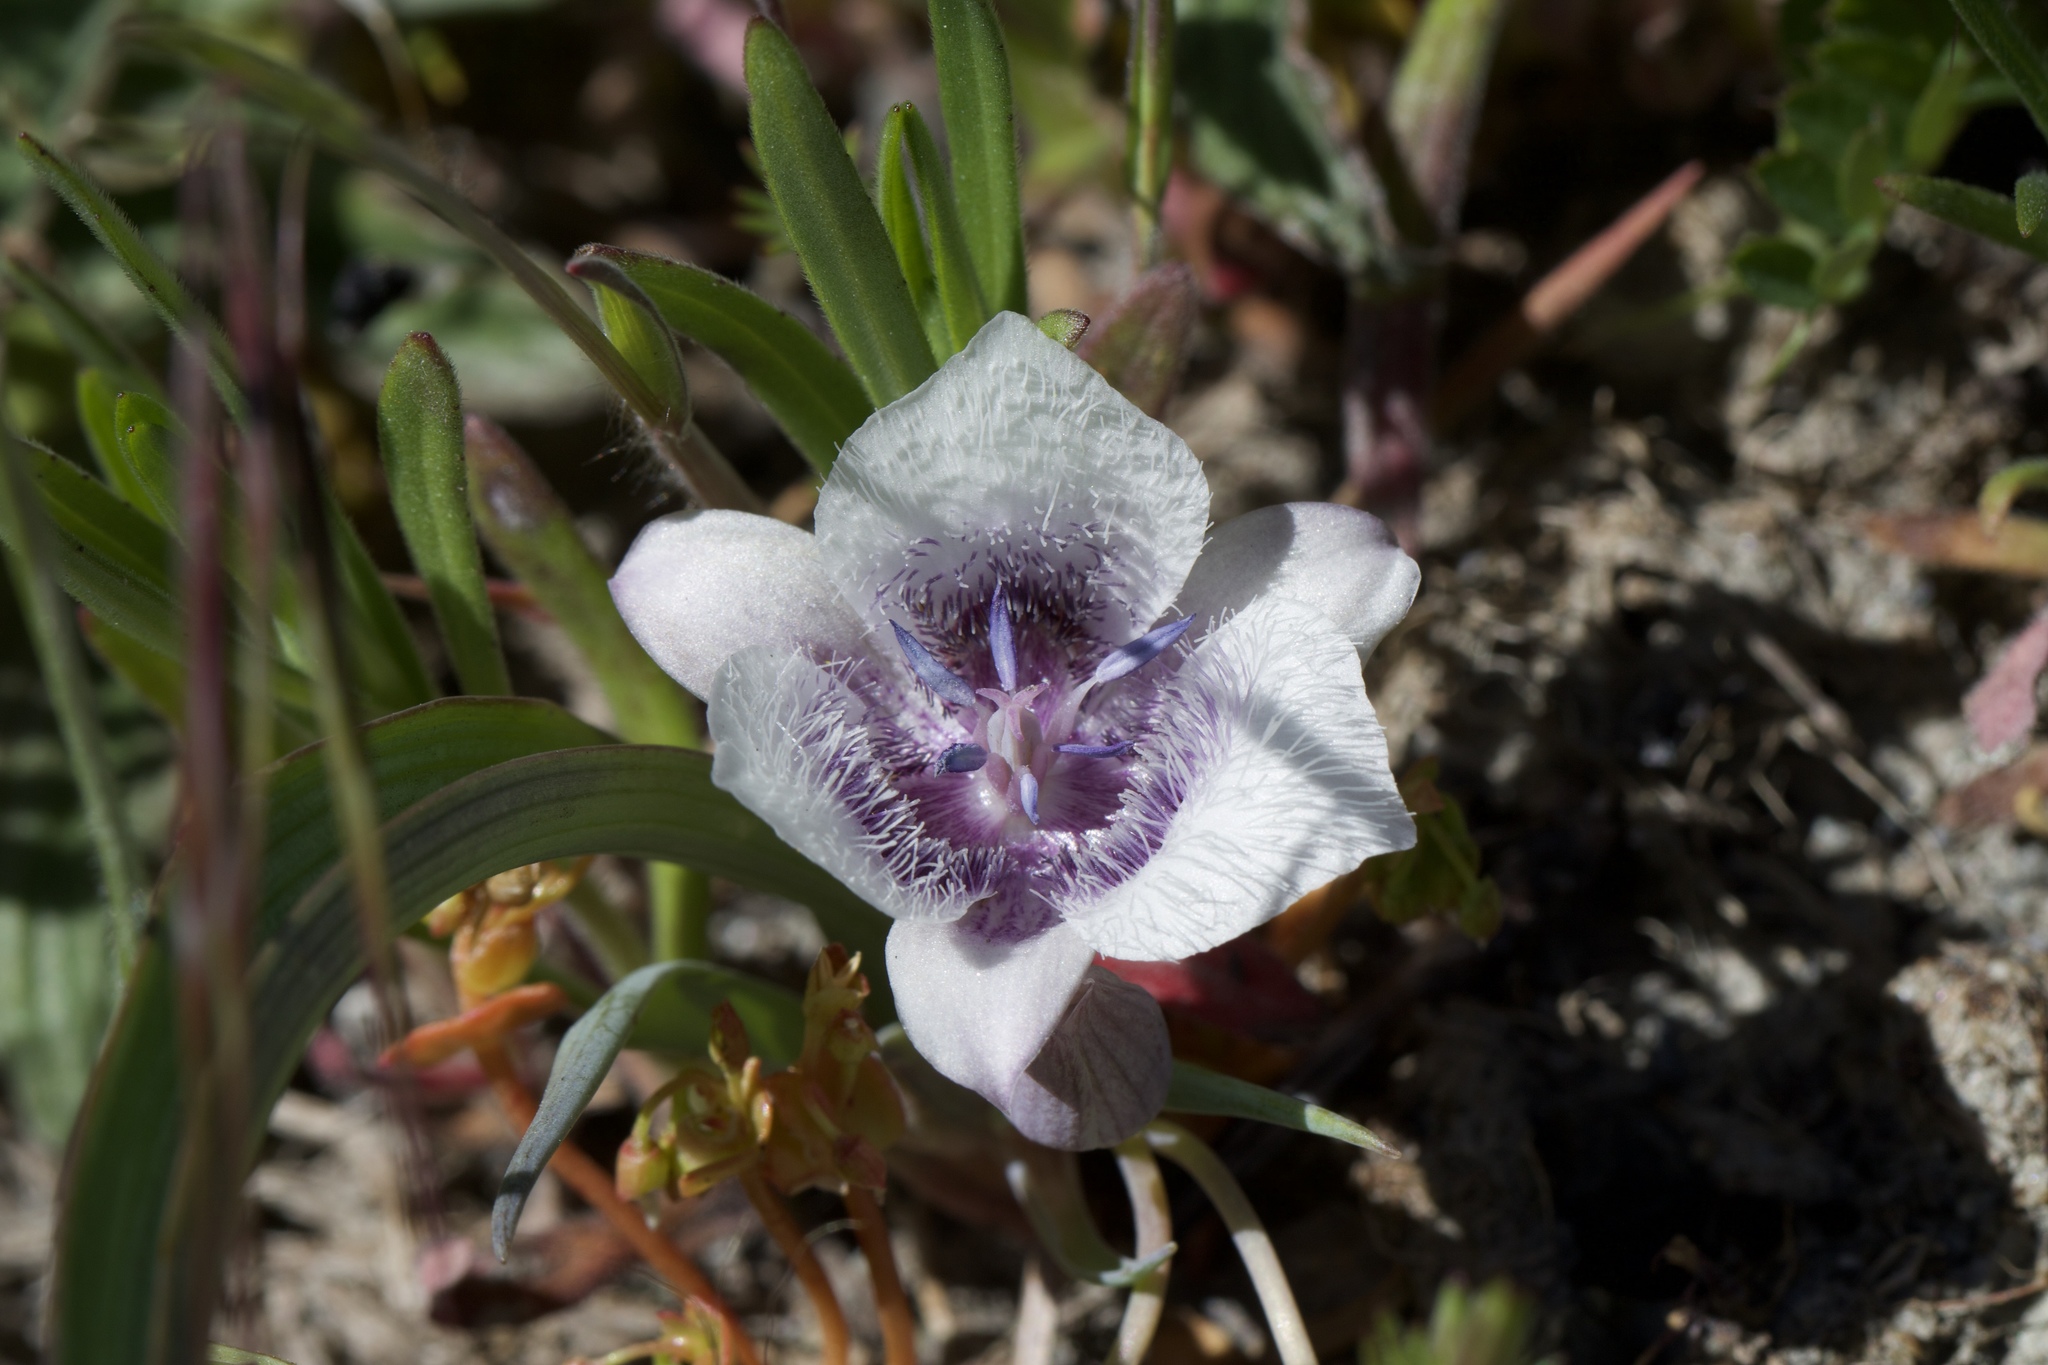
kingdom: Plantae
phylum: Tracheophyta
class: Liliopsida
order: Liliales
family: Liliaceae
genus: Calochortus
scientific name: Calochortus tolmiei
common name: Pussy-ears
